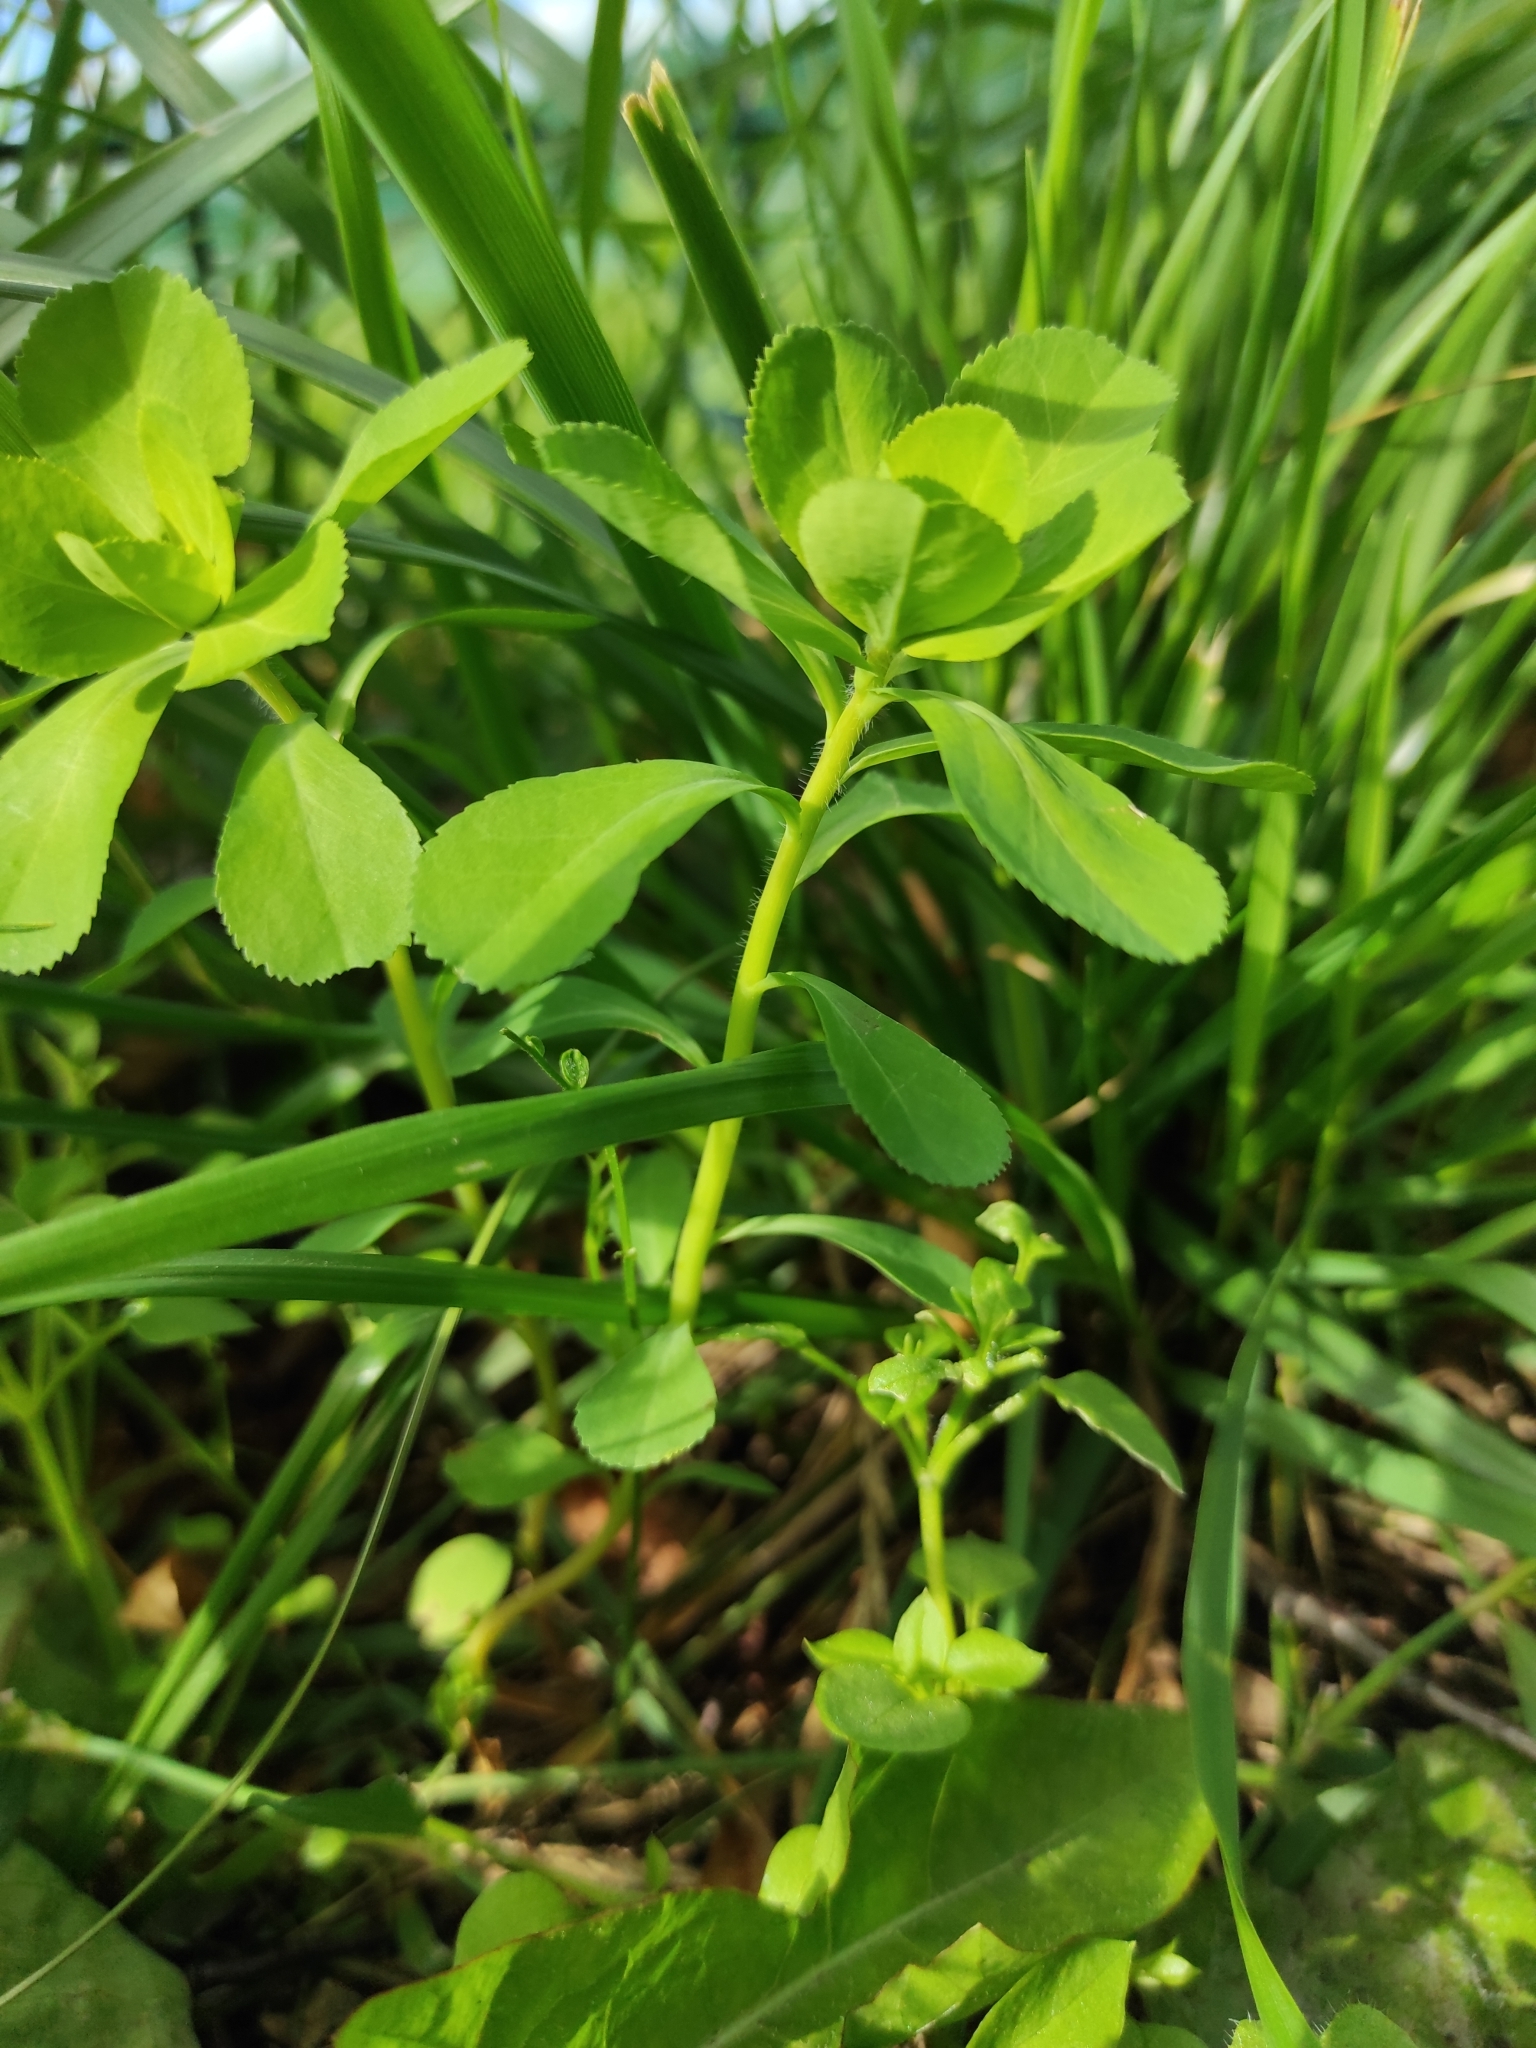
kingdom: Plantae
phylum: Tracheophyta
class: Magnoliopsida
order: Malpighiales
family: Euphorbiaceae
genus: Euphorbia
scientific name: Euphorbia helioscopia
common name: Sun spurge
